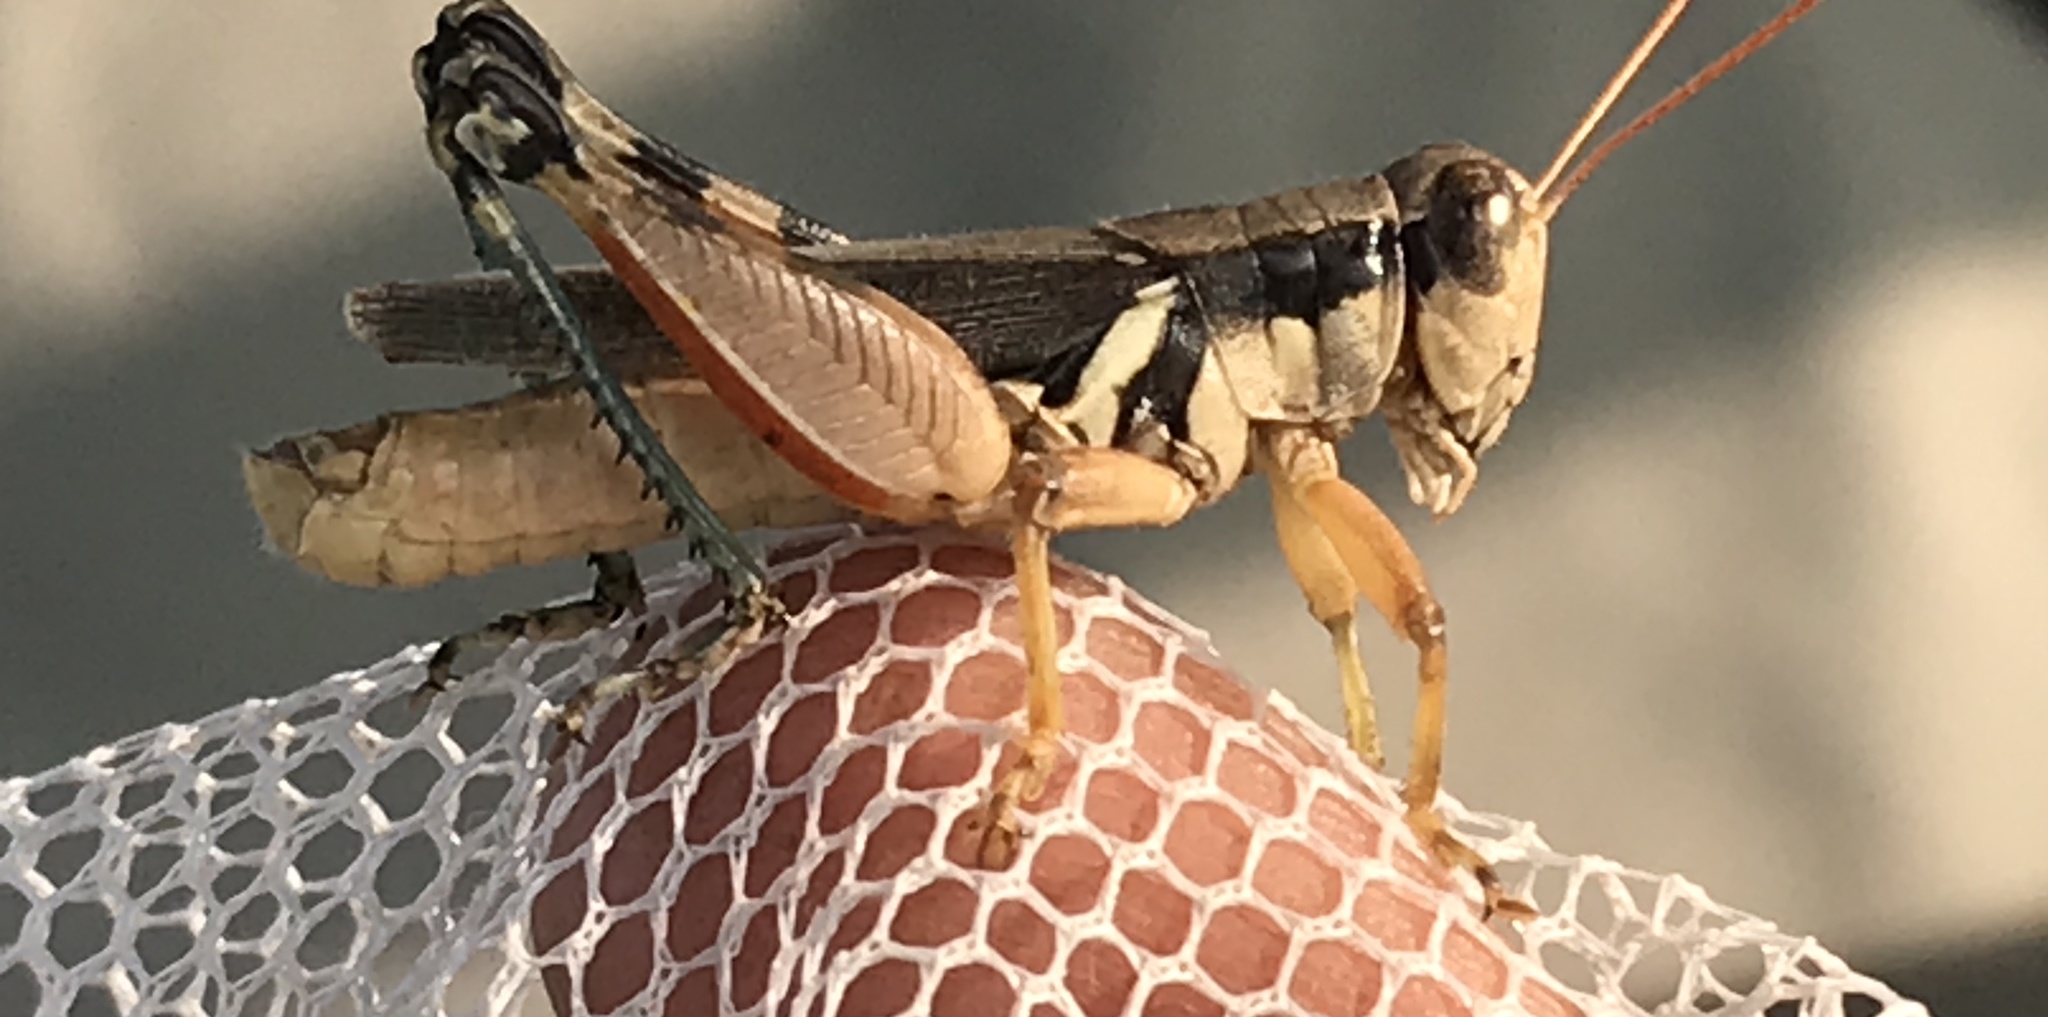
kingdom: Animalia
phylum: Arthropoda
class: Insecta
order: Orthoptera
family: Acrididae
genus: Melanoplus
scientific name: Melanoplus glaucipes
